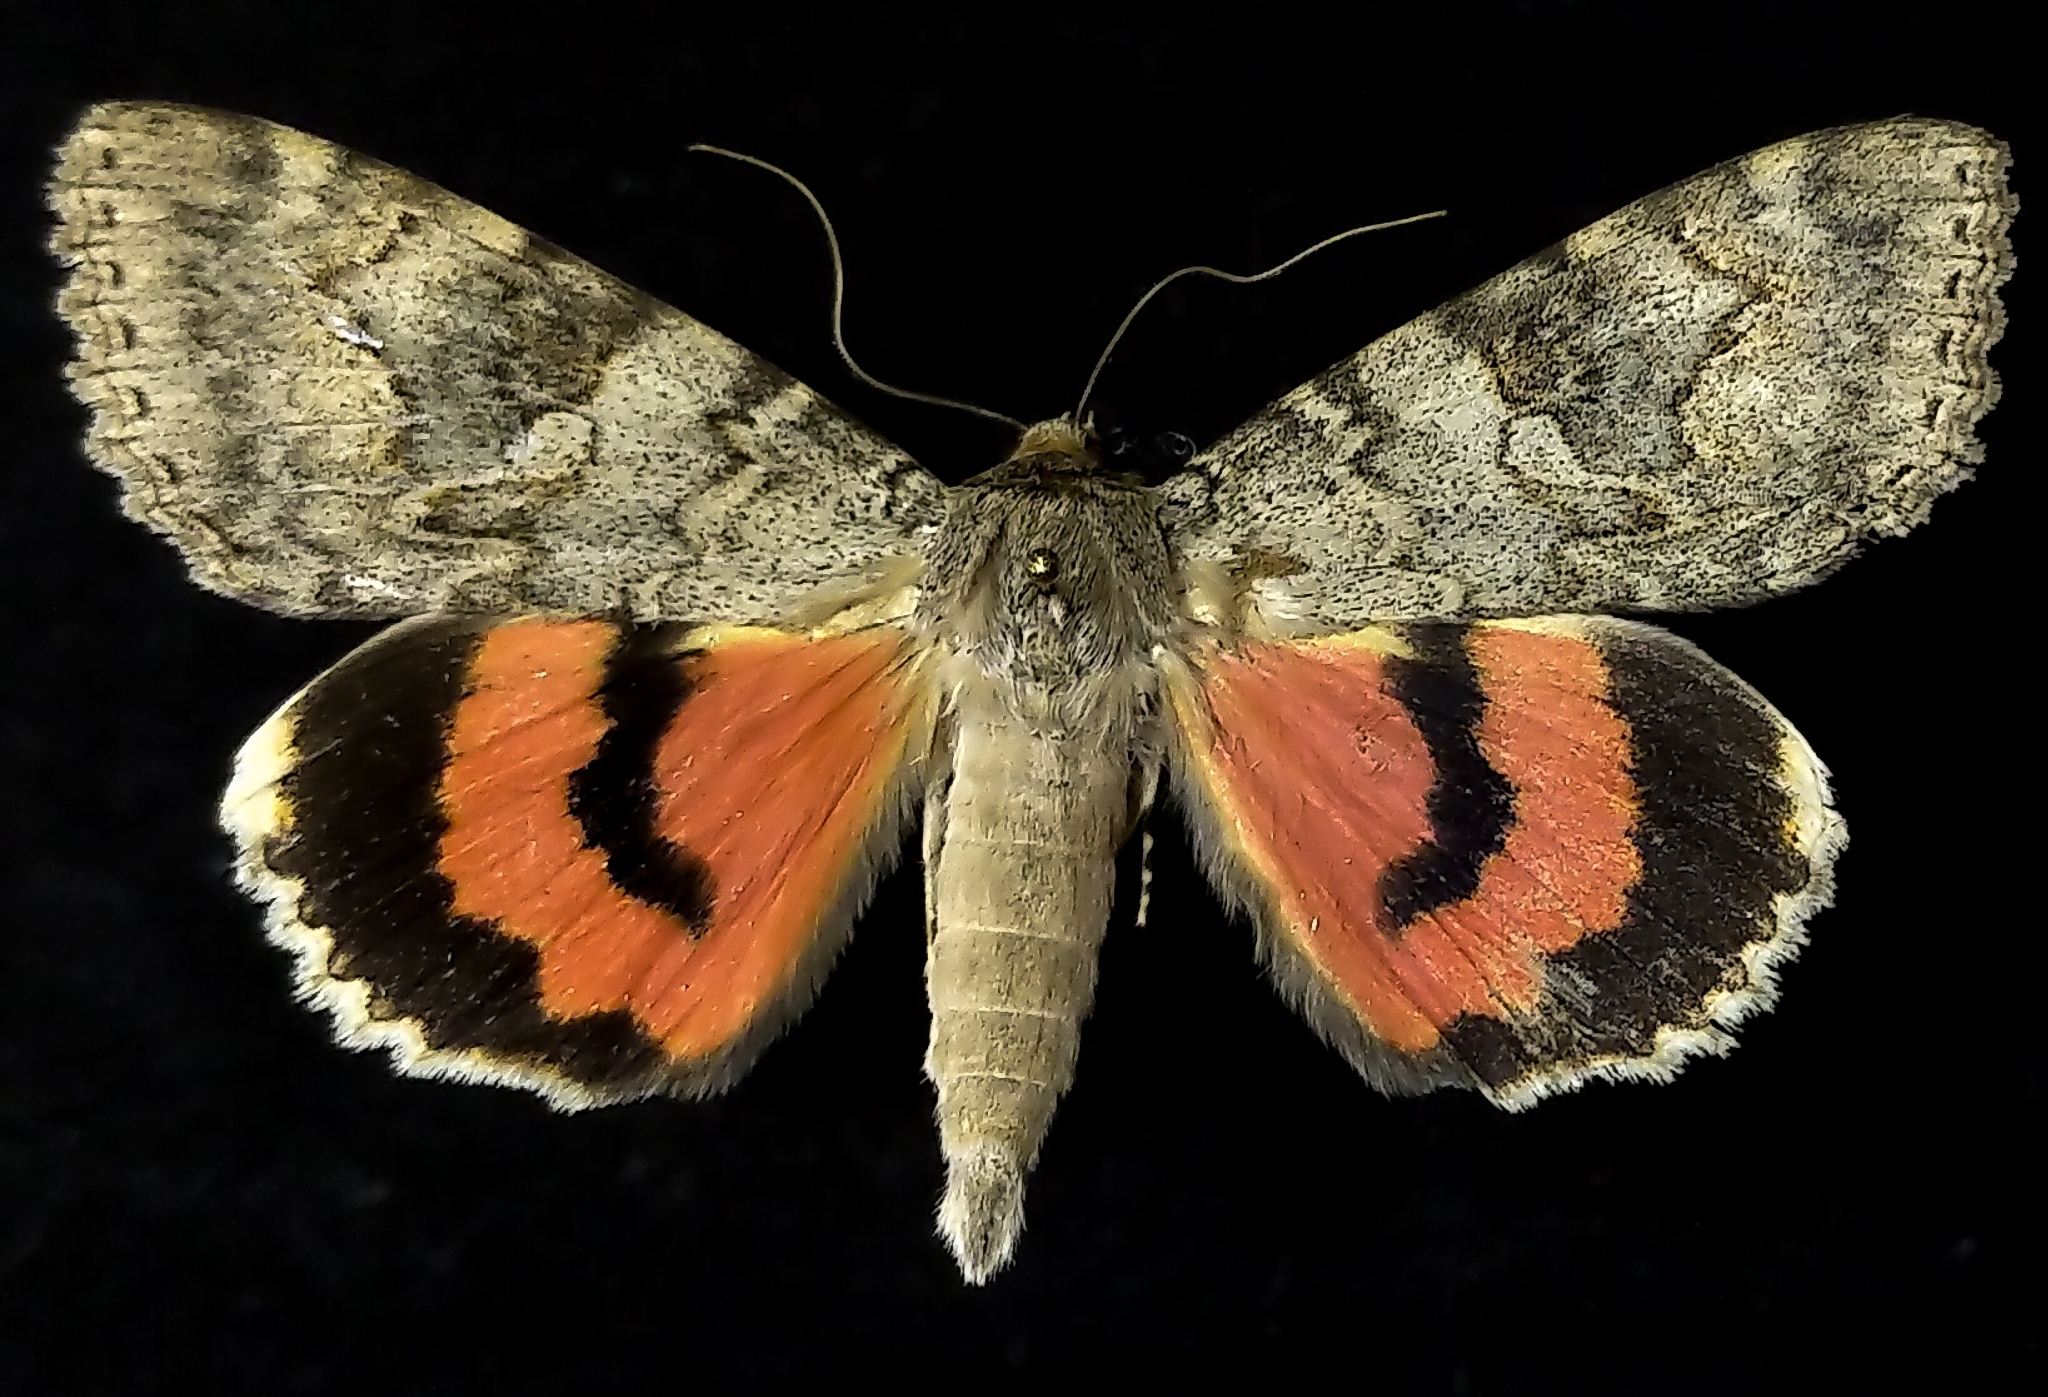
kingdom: Animalia
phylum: Arthropoda
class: Insecta
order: Lepidoptera
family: Erebidae
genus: Catocala
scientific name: Catocala californica
